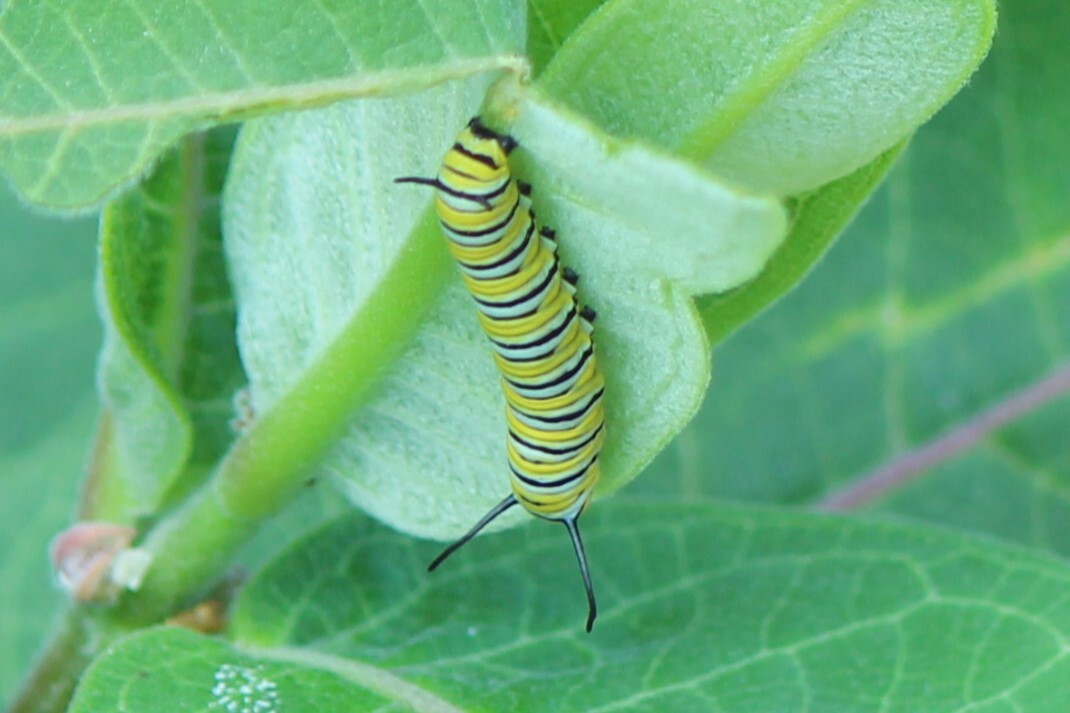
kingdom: Animalia
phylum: Arthropoda
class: Insecta
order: Lepidoptera
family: Nymphalidae
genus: Danaus
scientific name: Danaus plexippus
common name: Monarch
